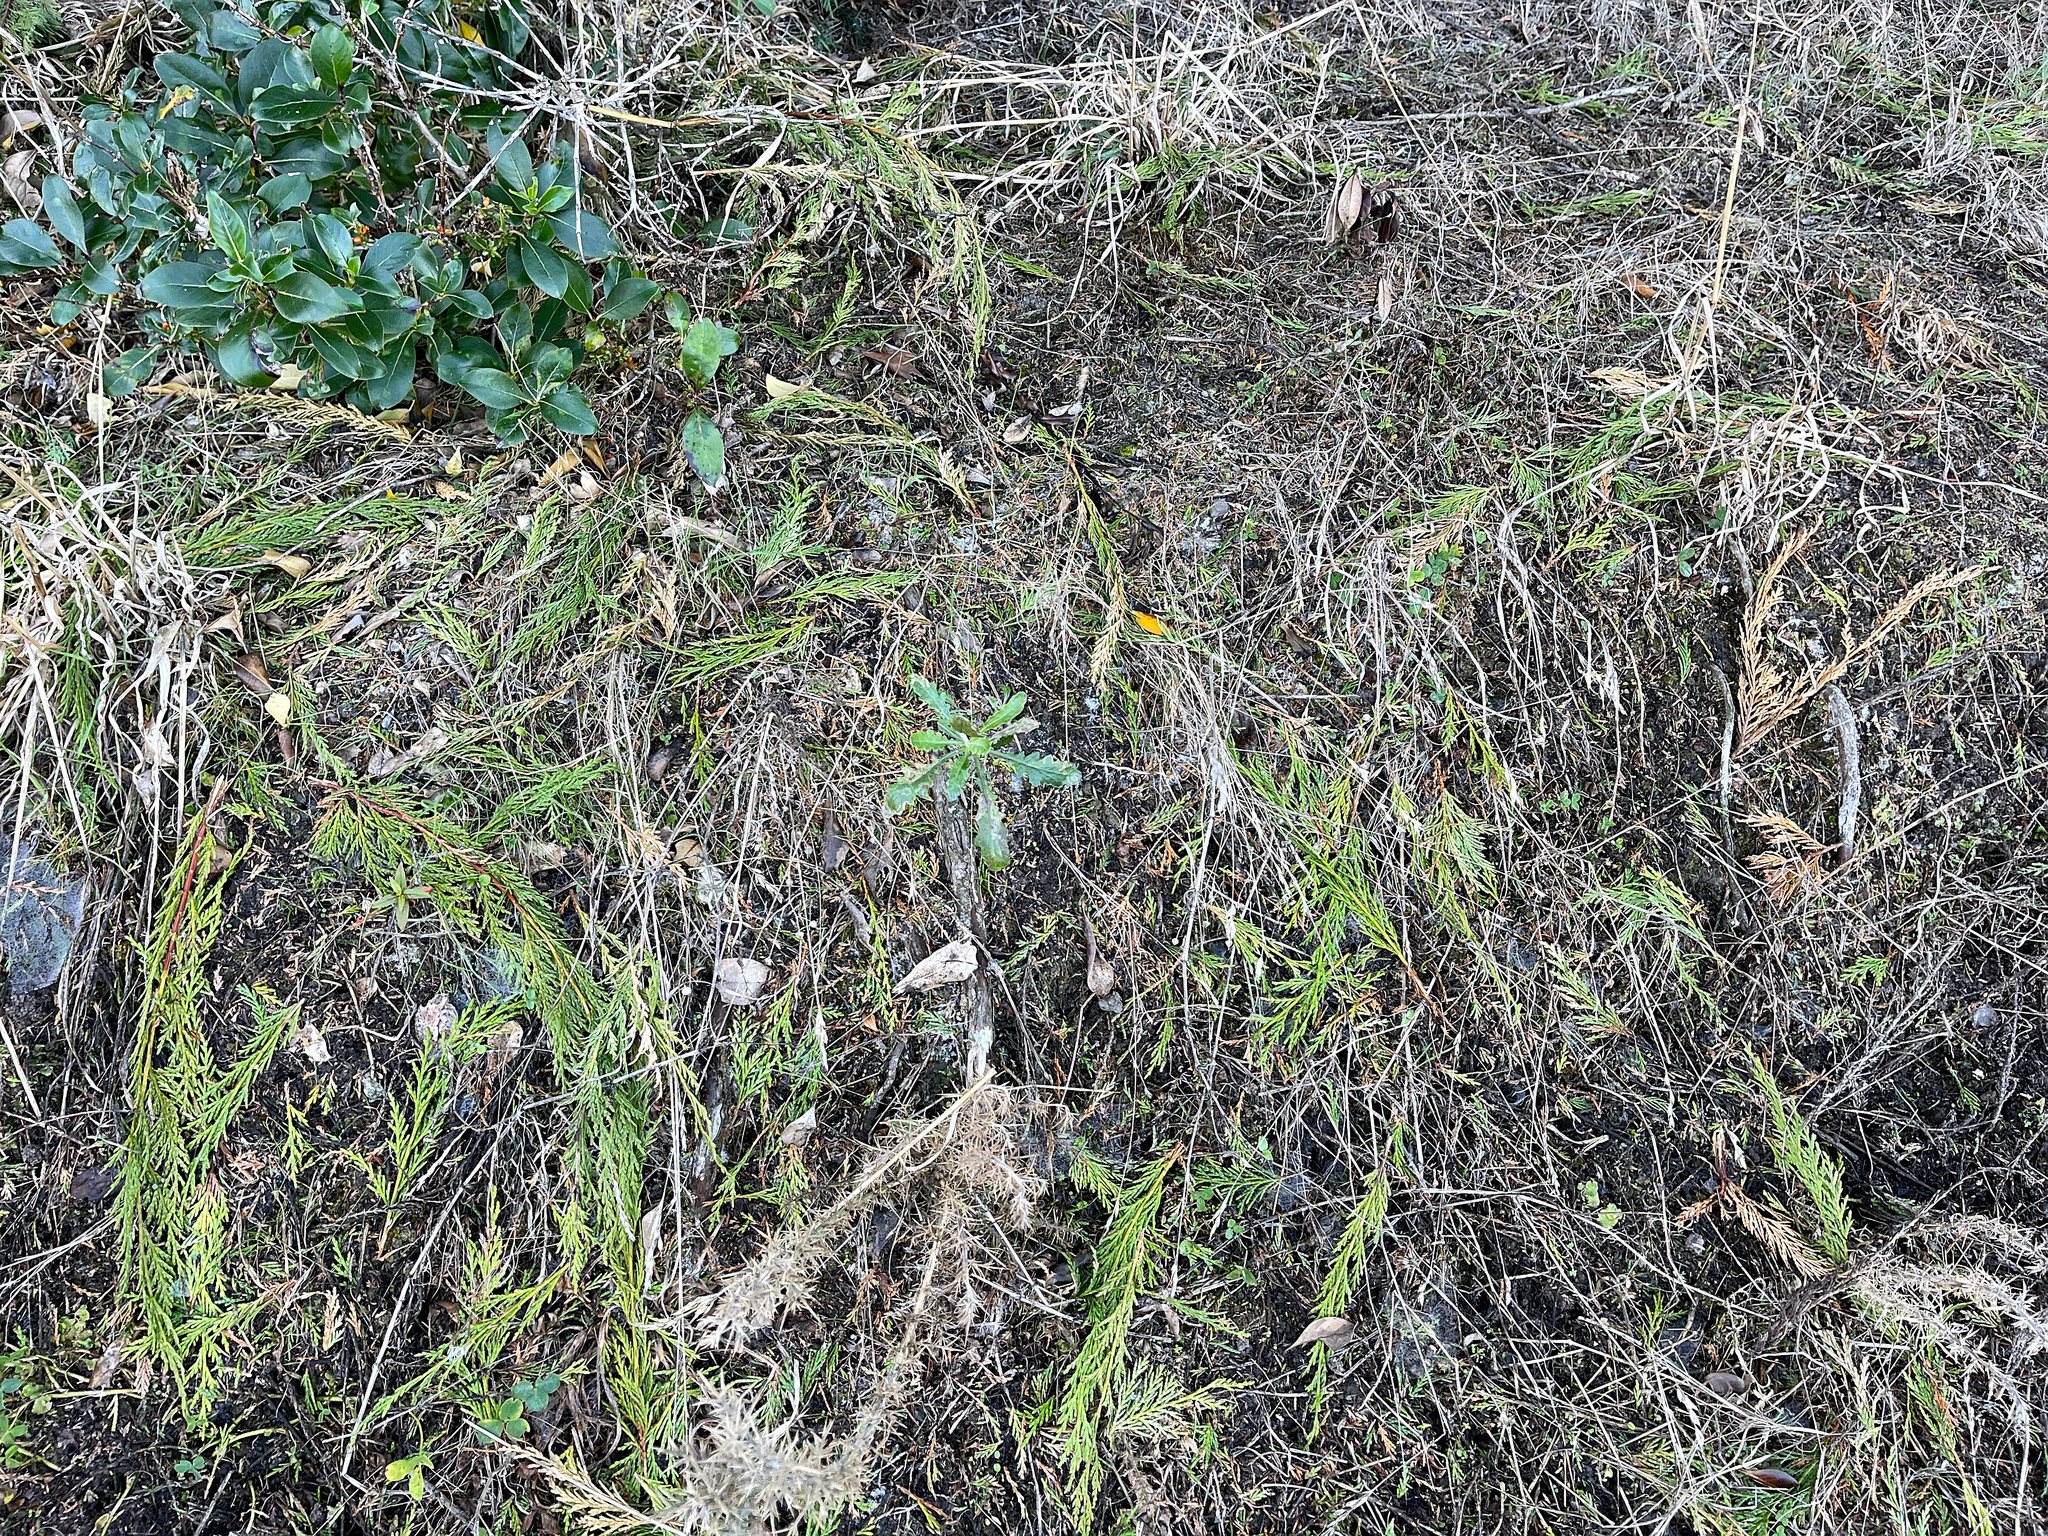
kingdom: Plantae
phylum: Tracheophyta
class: Magnoliopsida
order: Asterales
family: Asteraceae
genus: Senecio
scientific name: Senecio glomeratus
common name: Cutleaf burnweed
